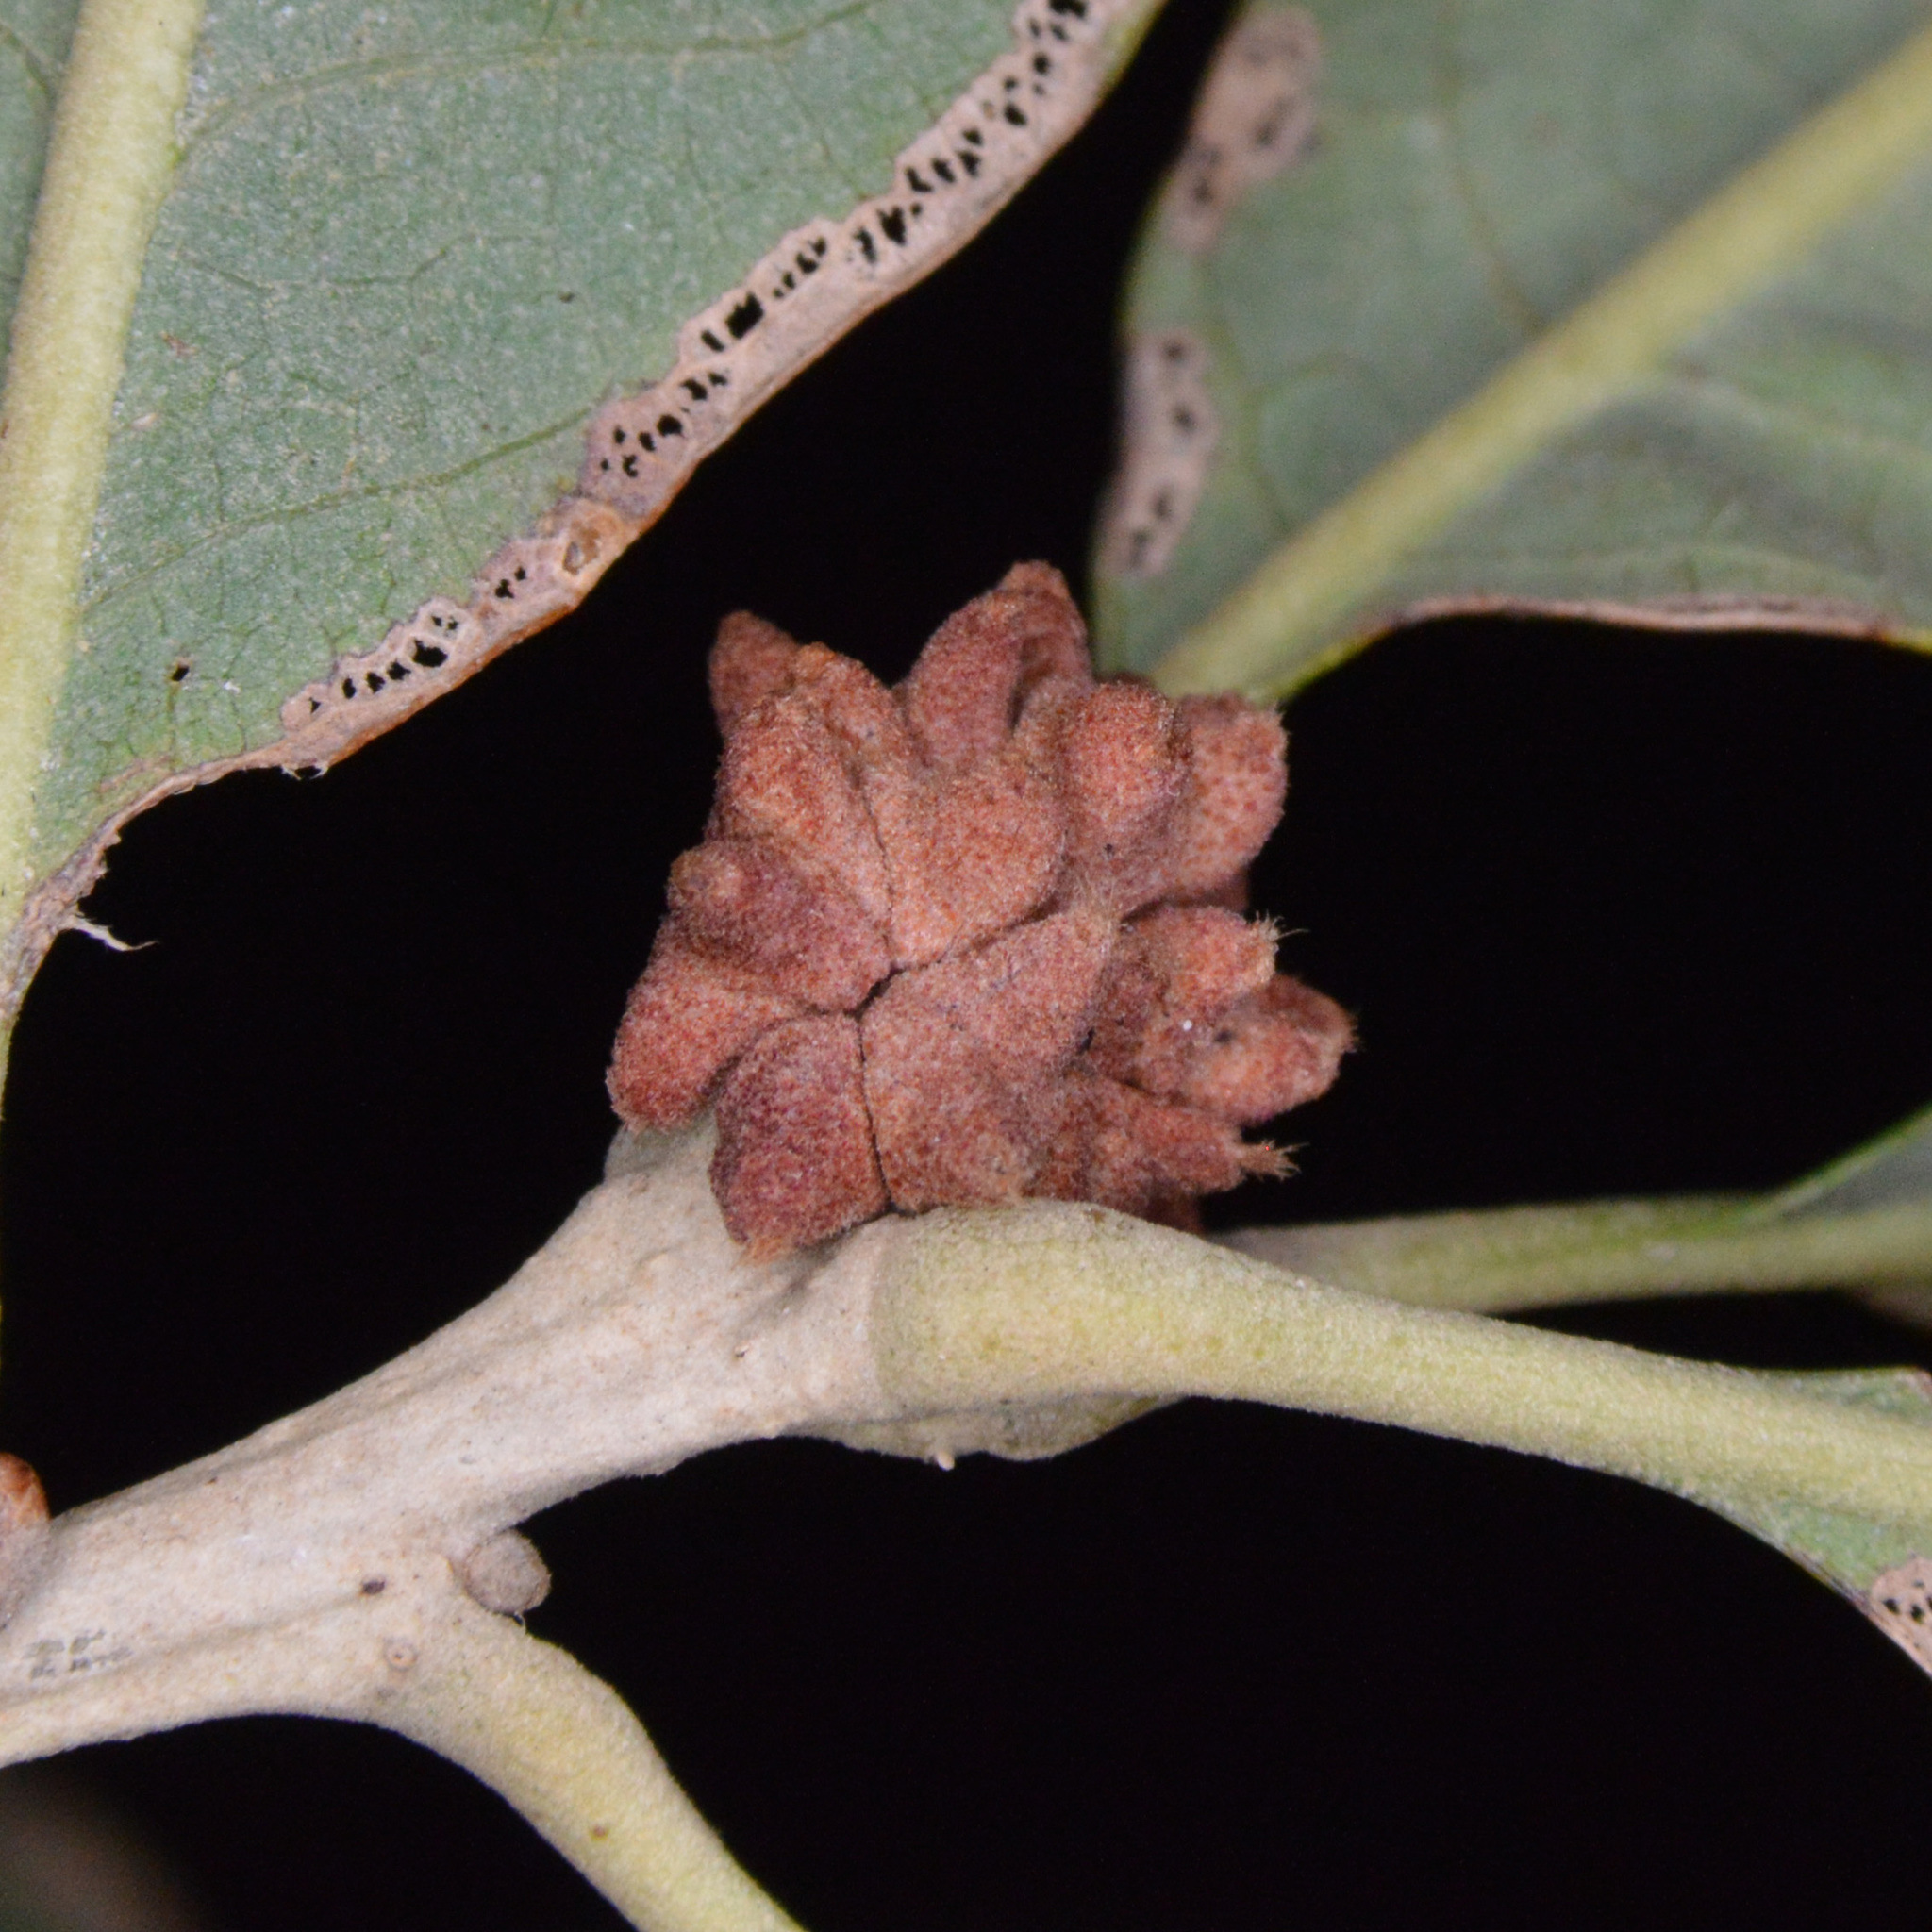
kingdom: Animalia
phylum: Arthropoda
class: Insecta
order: Hymenoptera
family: Cynipidae
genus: Andricus
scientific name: Andricus
